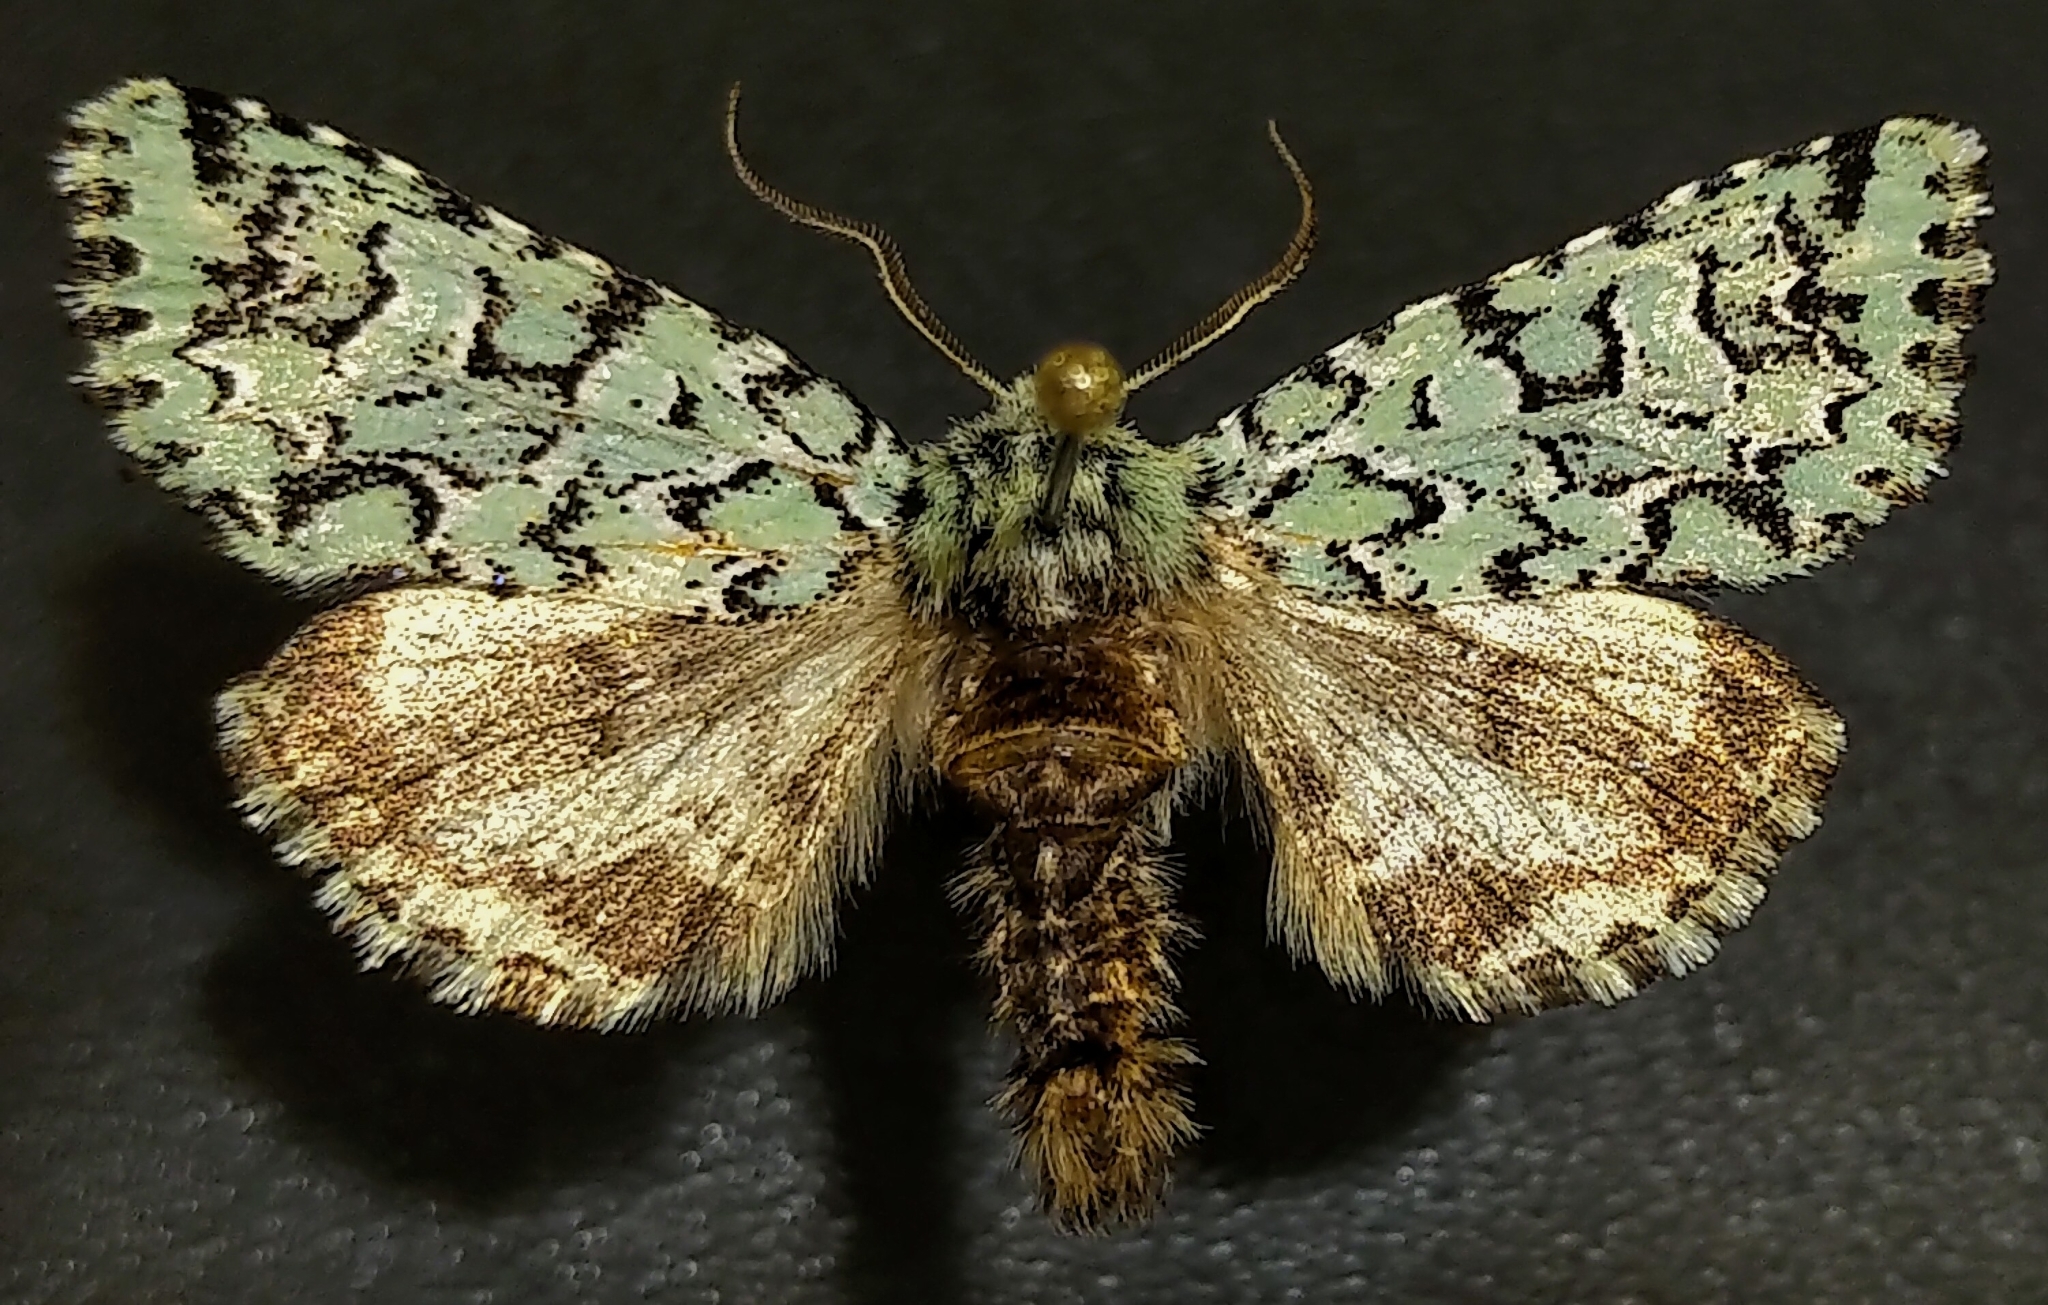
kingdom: Animalia
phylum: Arthropoda
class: Insecta
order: Lepidoptera
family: Noctuidae
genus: Feralia
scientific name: Feralia comstocki
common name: Comstock's sallow
